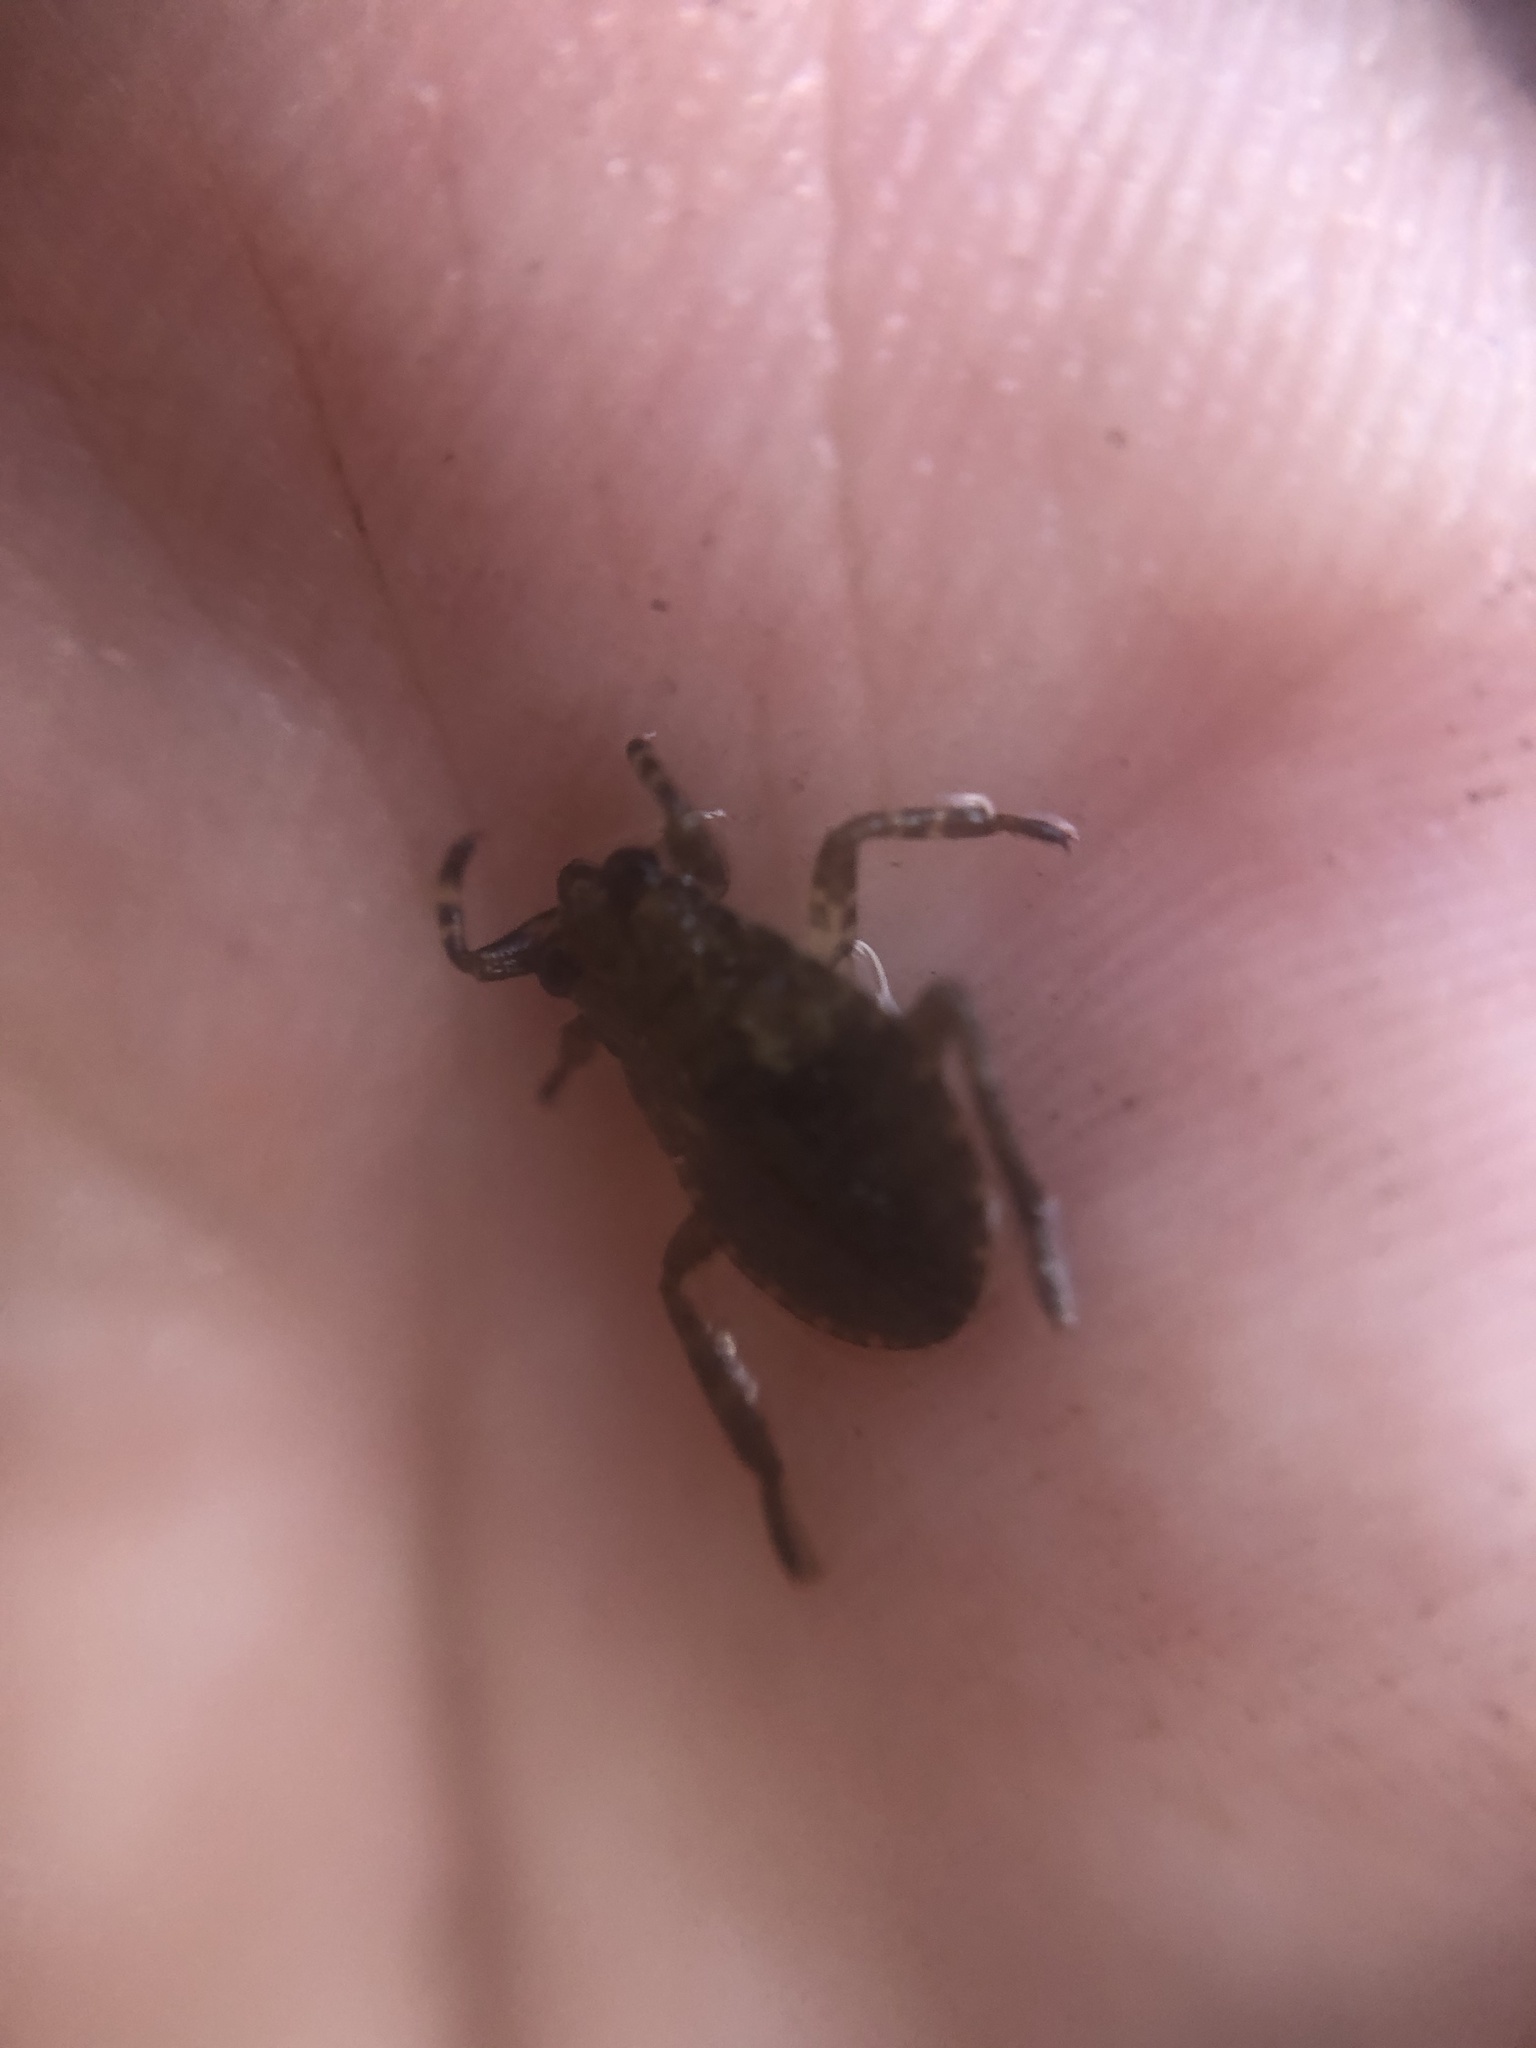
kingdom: Animalia
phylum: Arthropoda
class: Insecta
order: Hemiptera
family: Belostomatidae
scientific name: Belostomatidae
